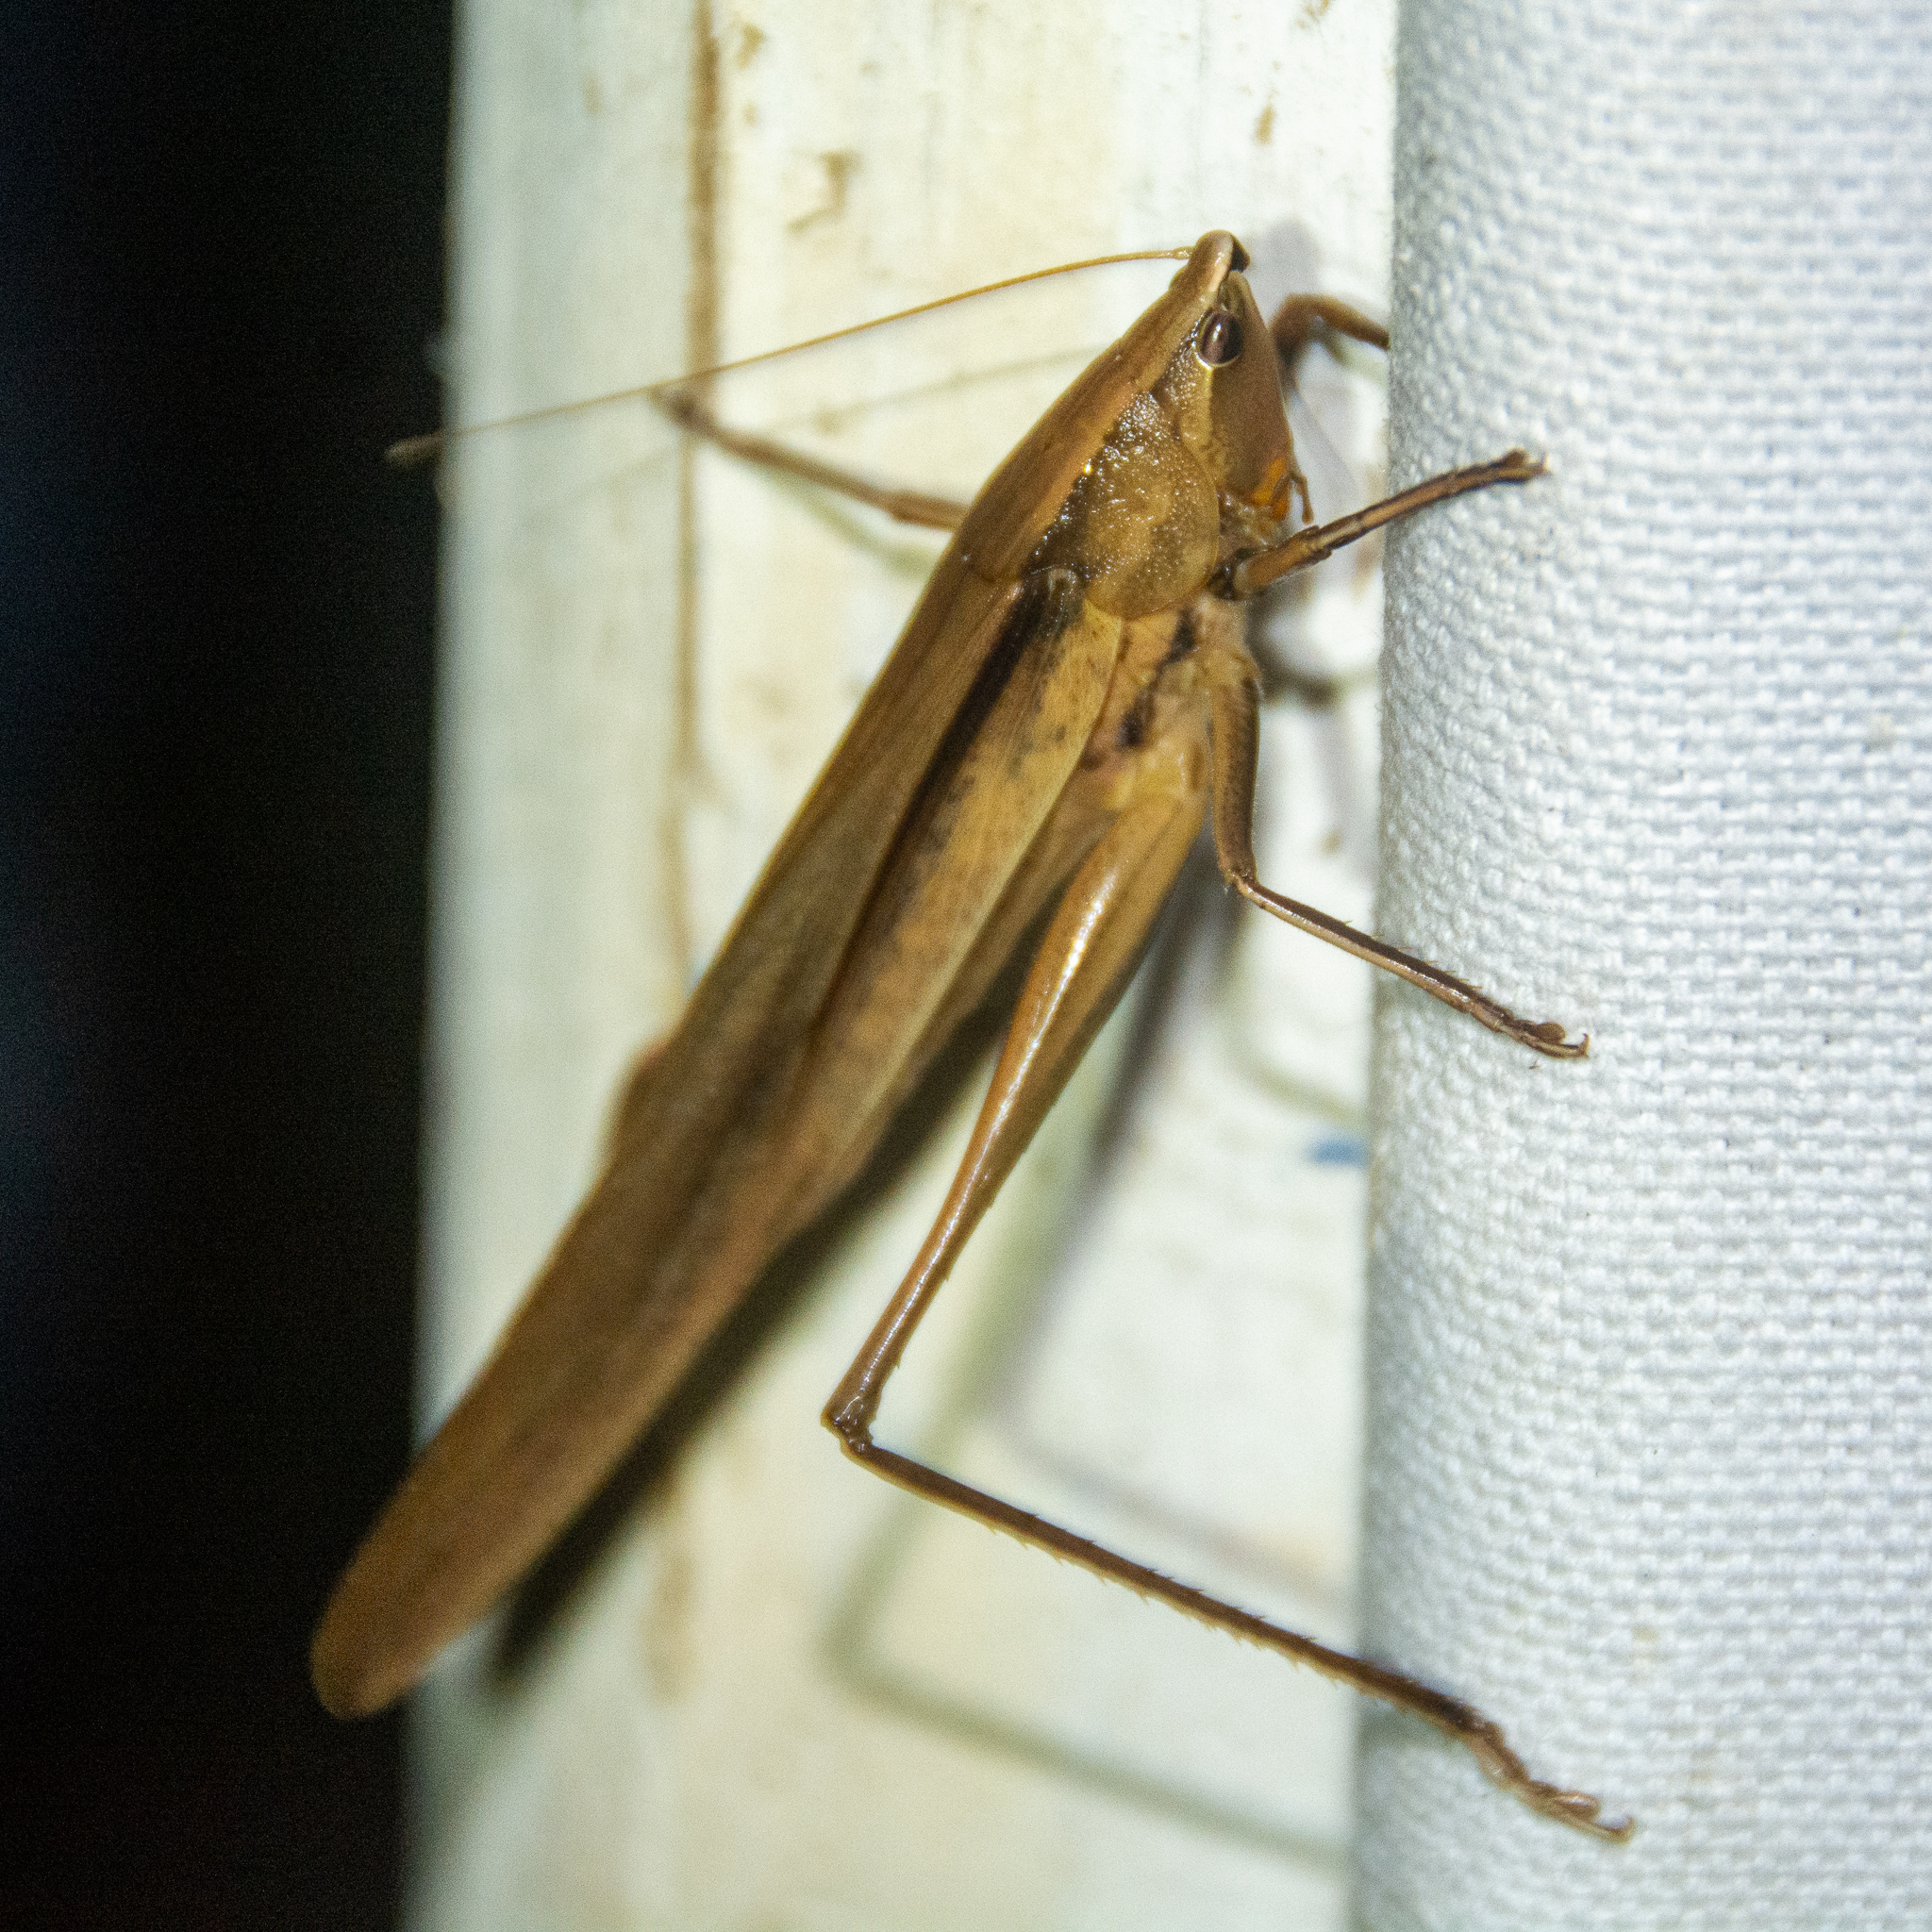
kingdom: Animalia
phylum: Arthropoda
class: Insecta
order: Orthoptera
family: Tettigoniidae
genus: Neoconocephalus
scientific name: Neoconocephalus triops
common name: Broad-tipped conehead
